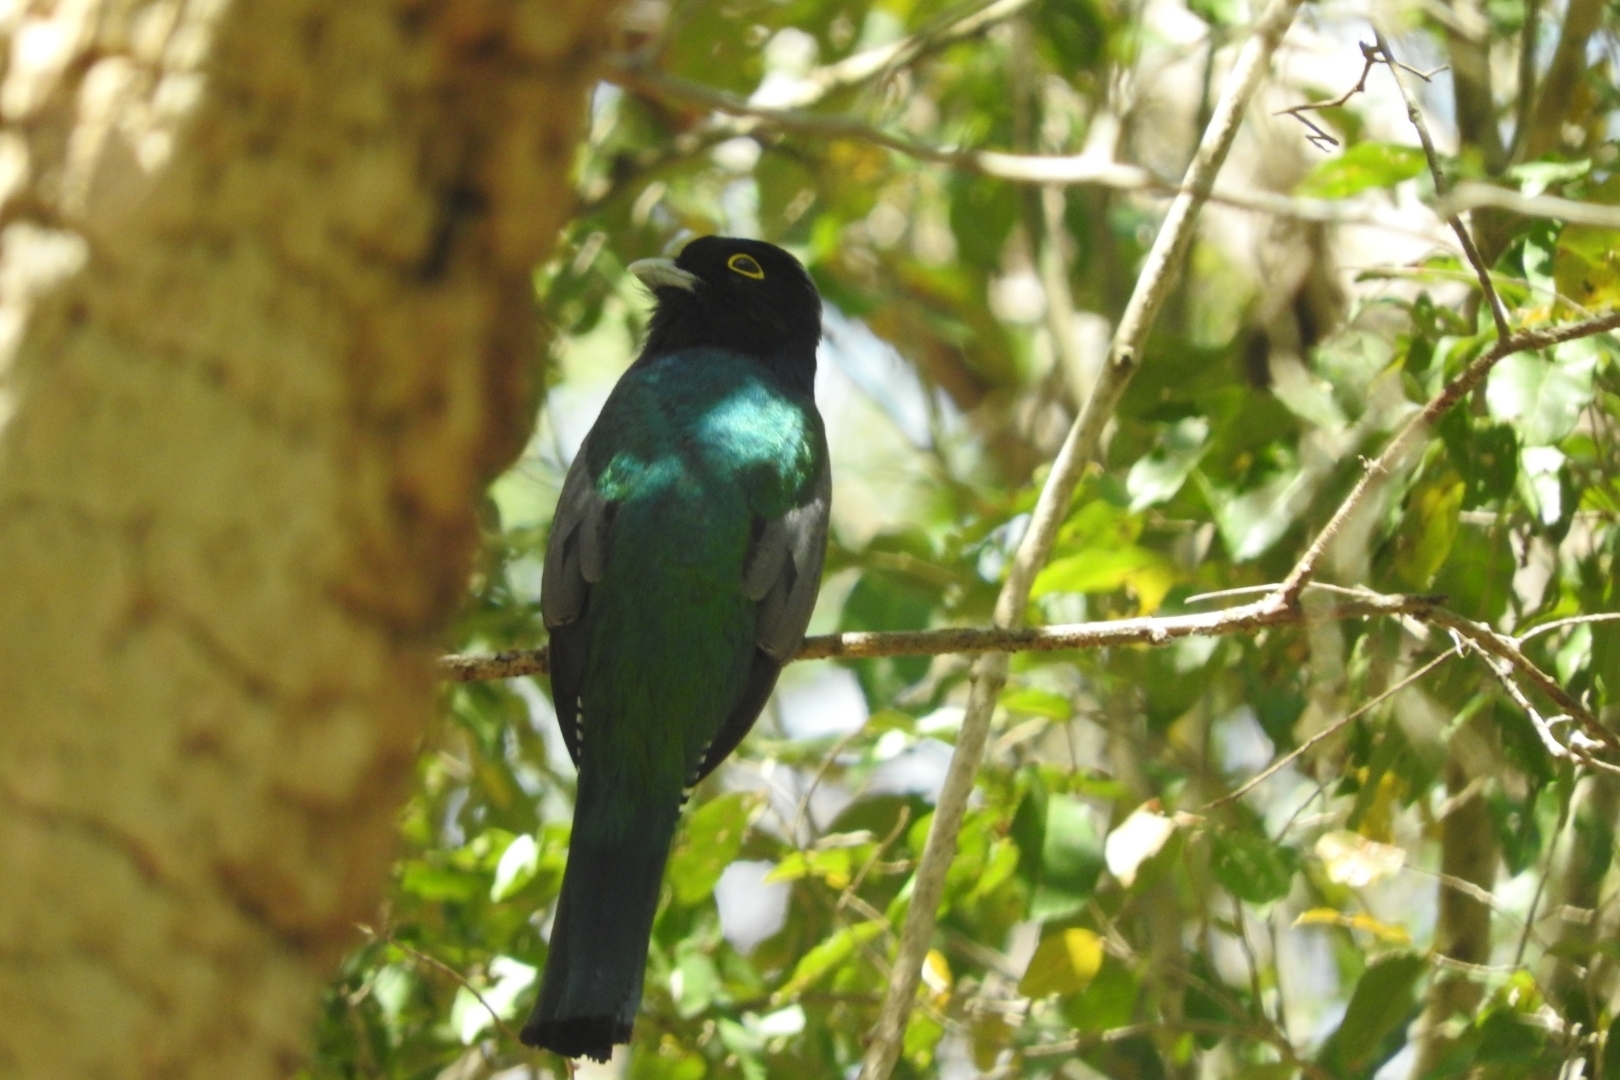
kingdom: Animalia
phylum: Chordata
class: Aves
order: Trogoniformes
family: Trogonidae
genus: Trogon
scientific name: Trogon caligatus
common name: Gartered trogon
